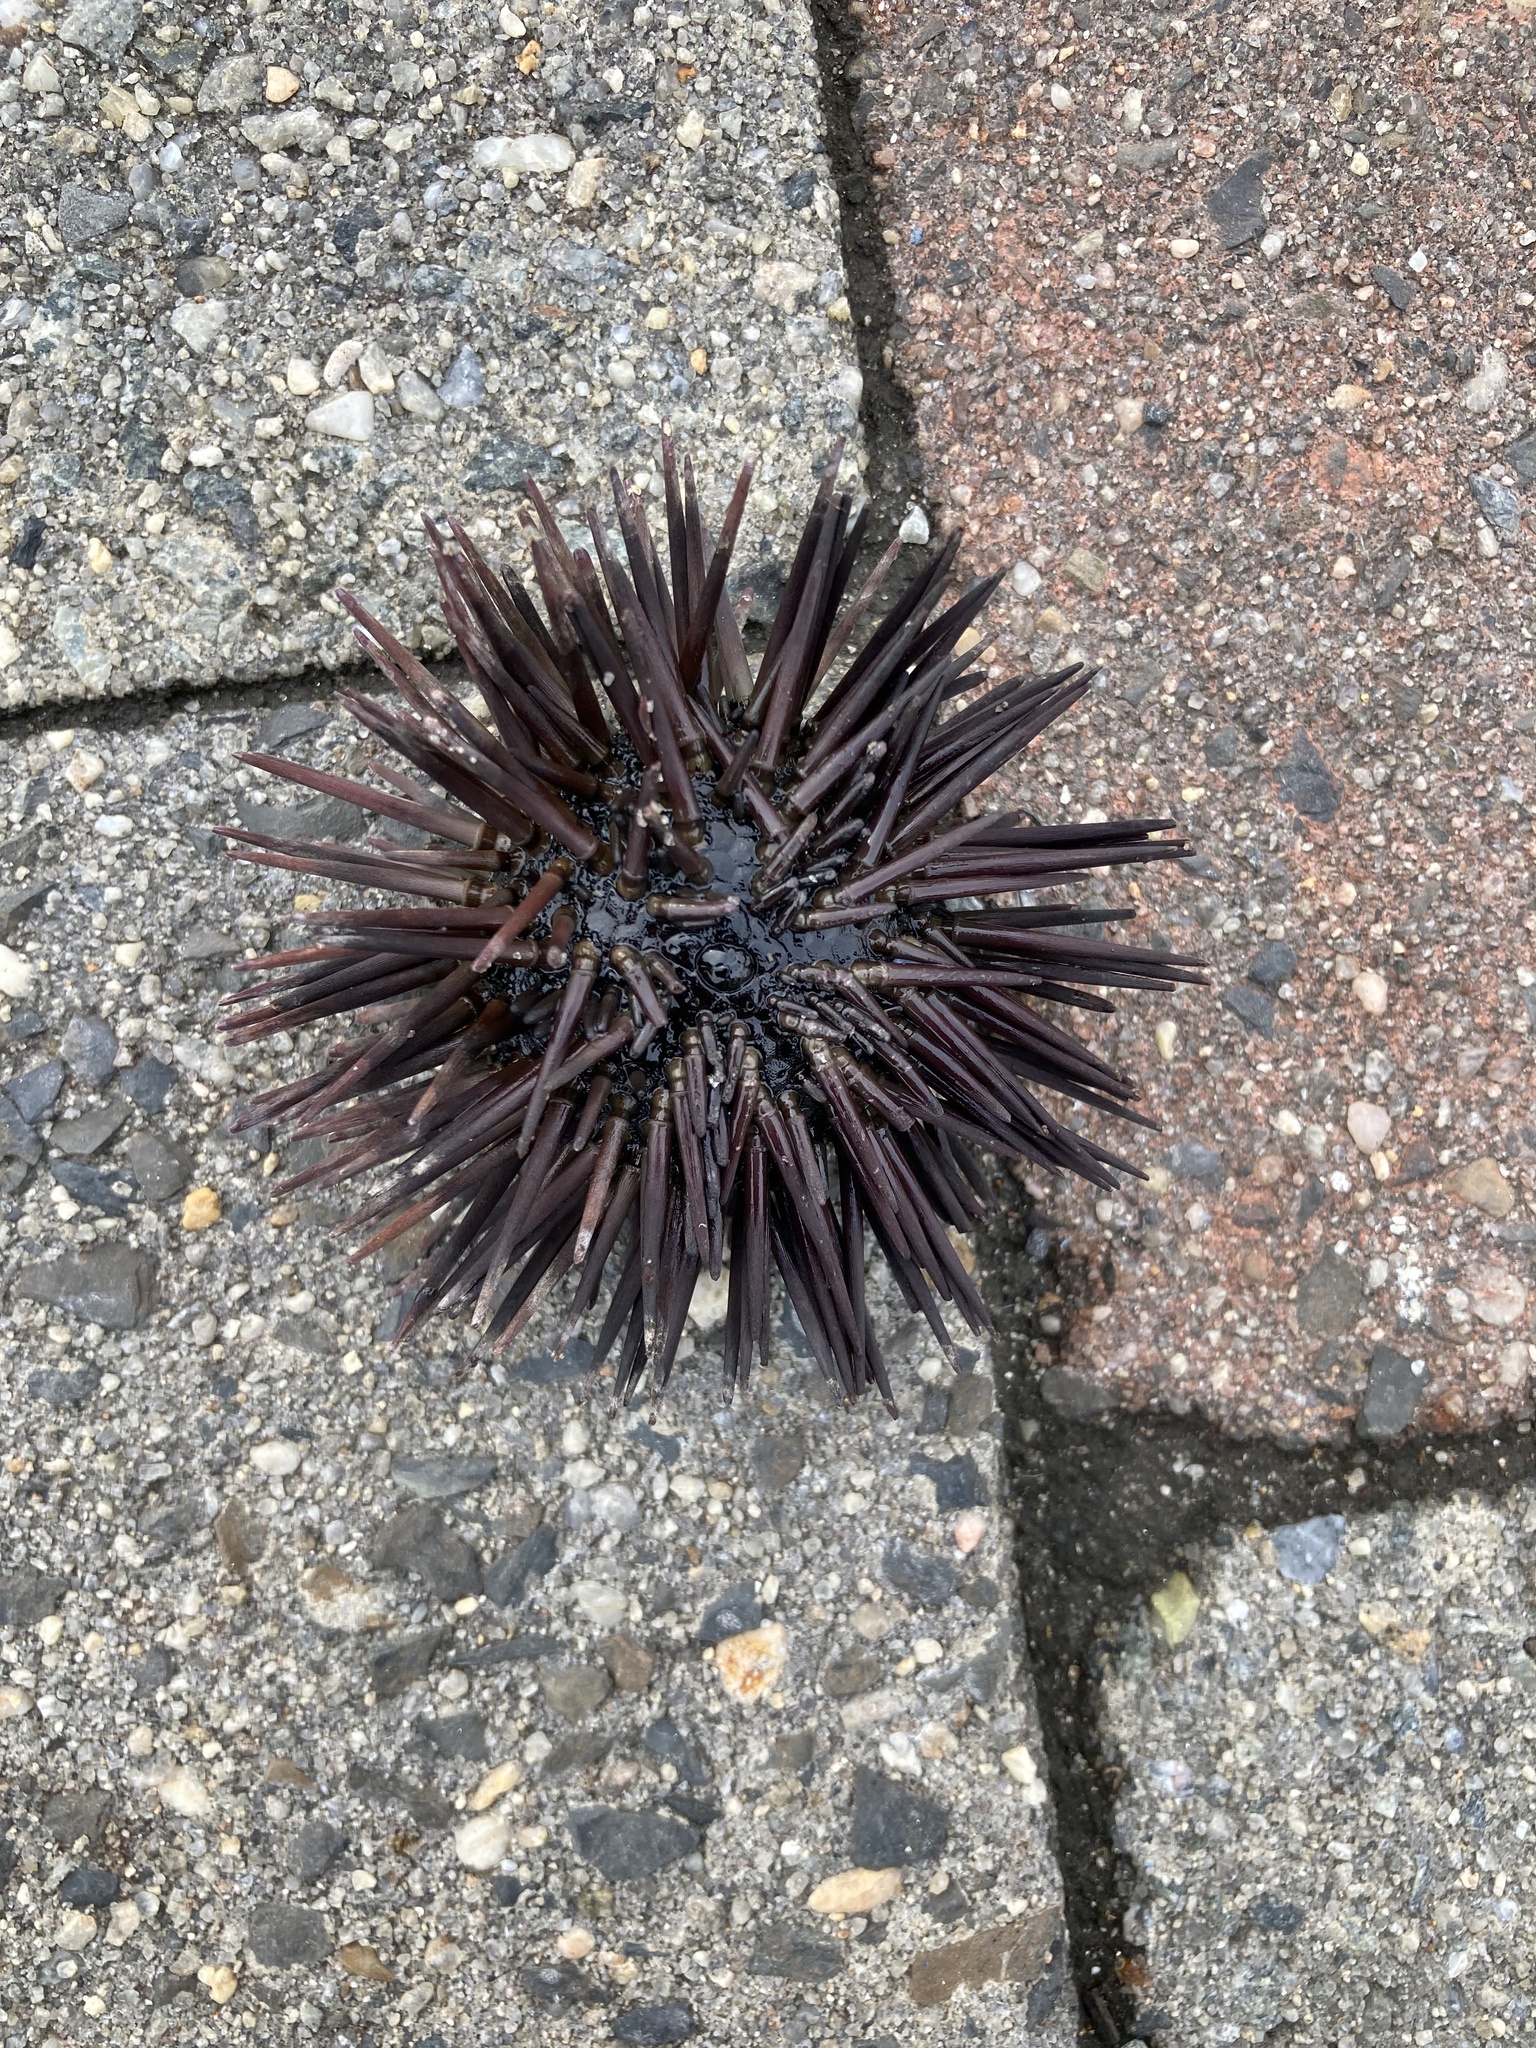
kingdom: Animalia
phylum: Echinodermata
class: Echinoidea
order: Arbacioida
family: Arbaciidae
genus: Arbacia
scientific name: Arbacia punctulata
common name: Purple-spined sea urchin
